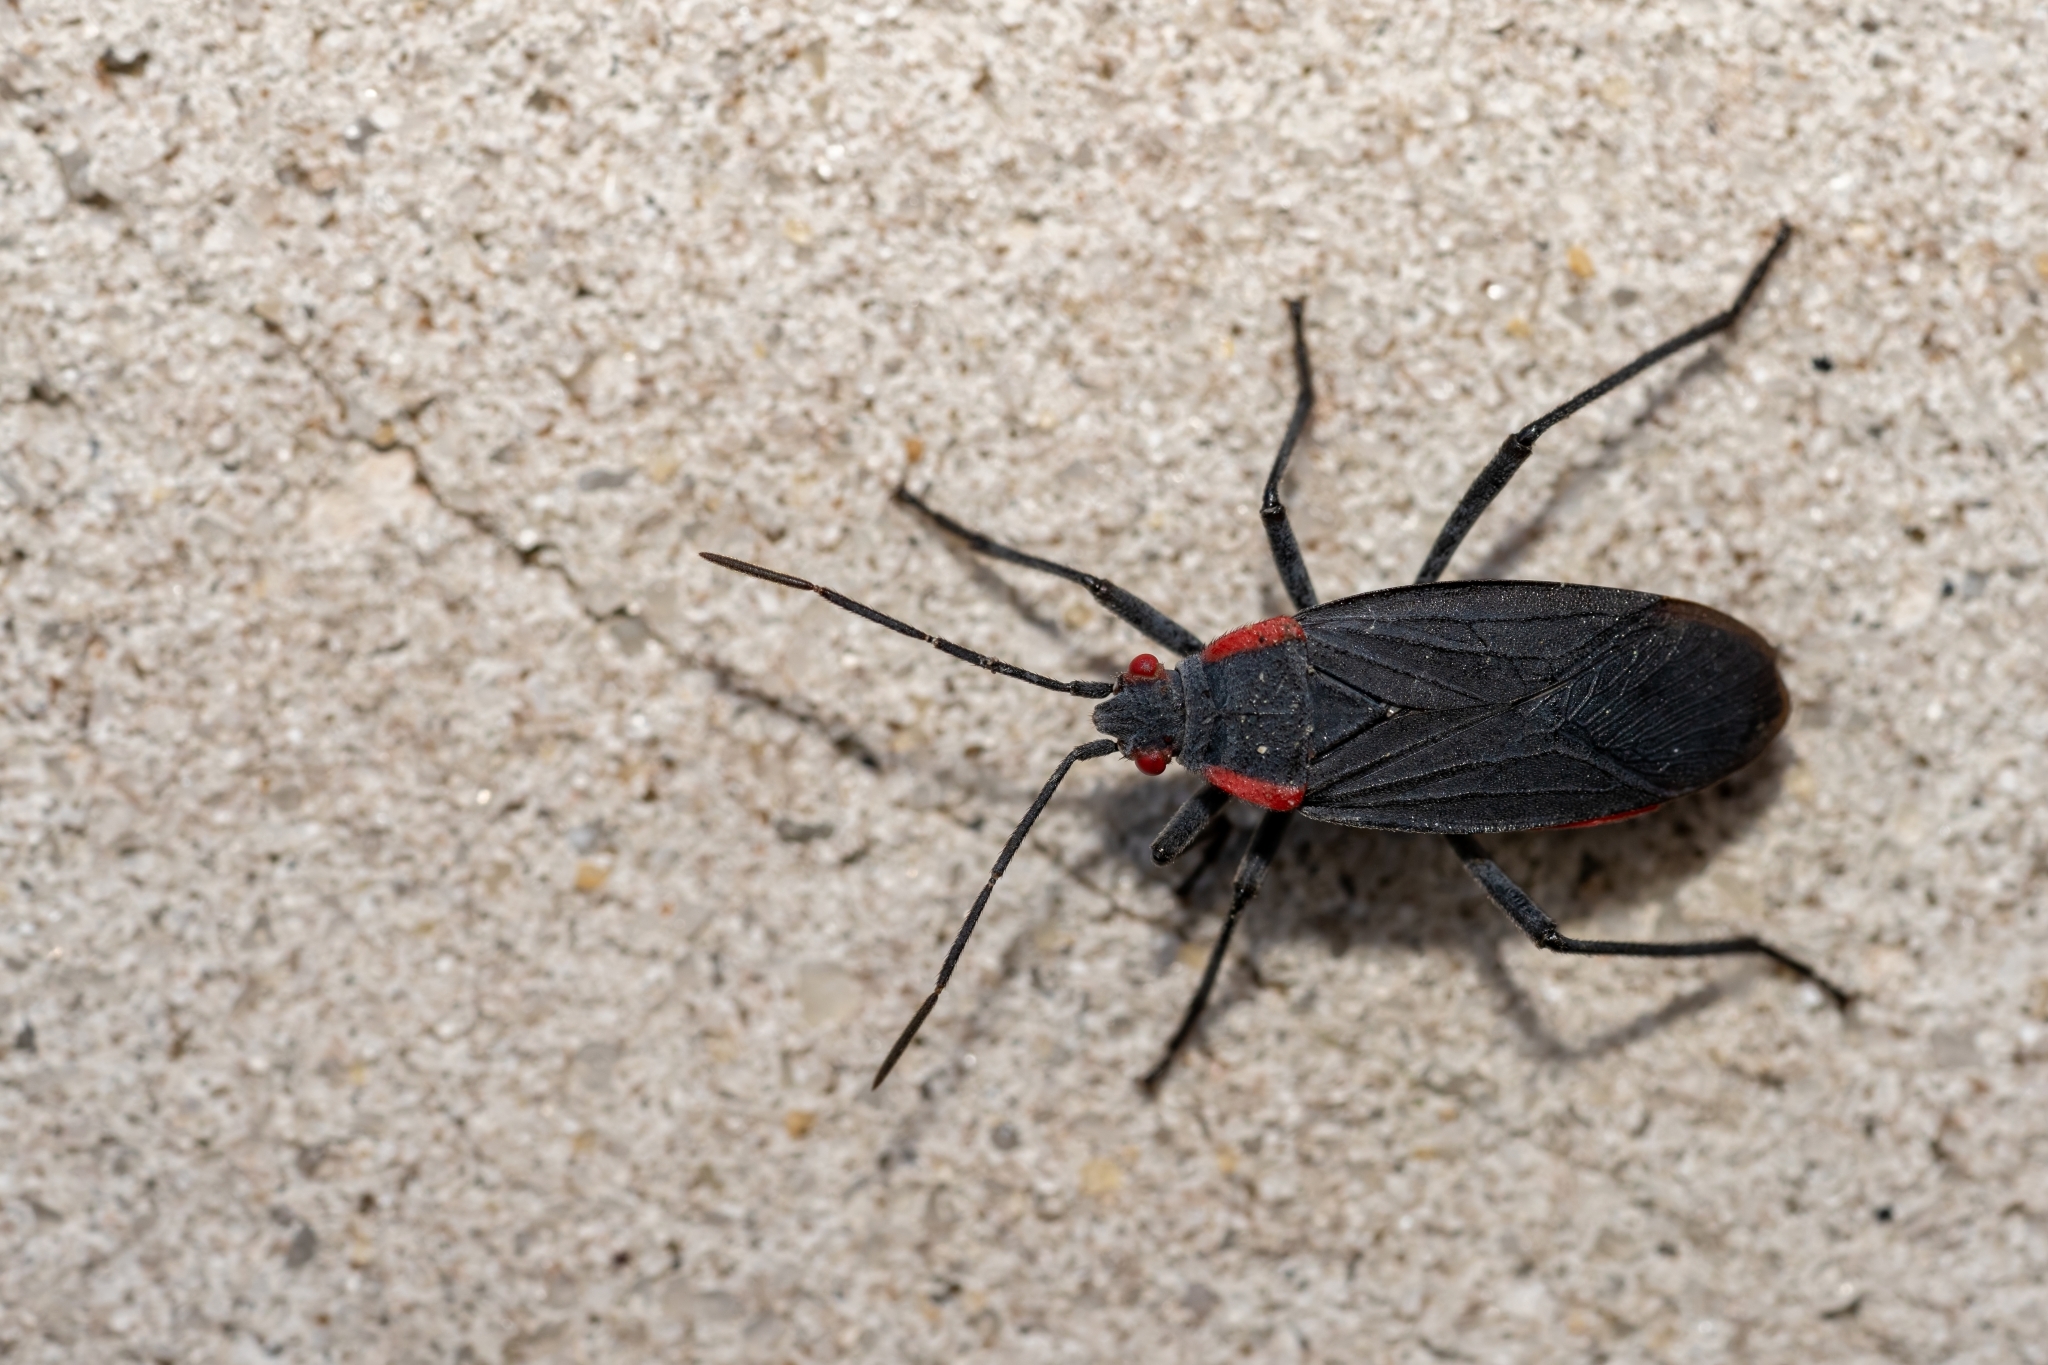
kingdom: Animalia
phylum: Arthropoda
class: Insecta
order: Hemiptera
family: Rhopalidae
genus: Jadera
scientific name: Jadera haematoloma
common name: Red-shouldered bug
